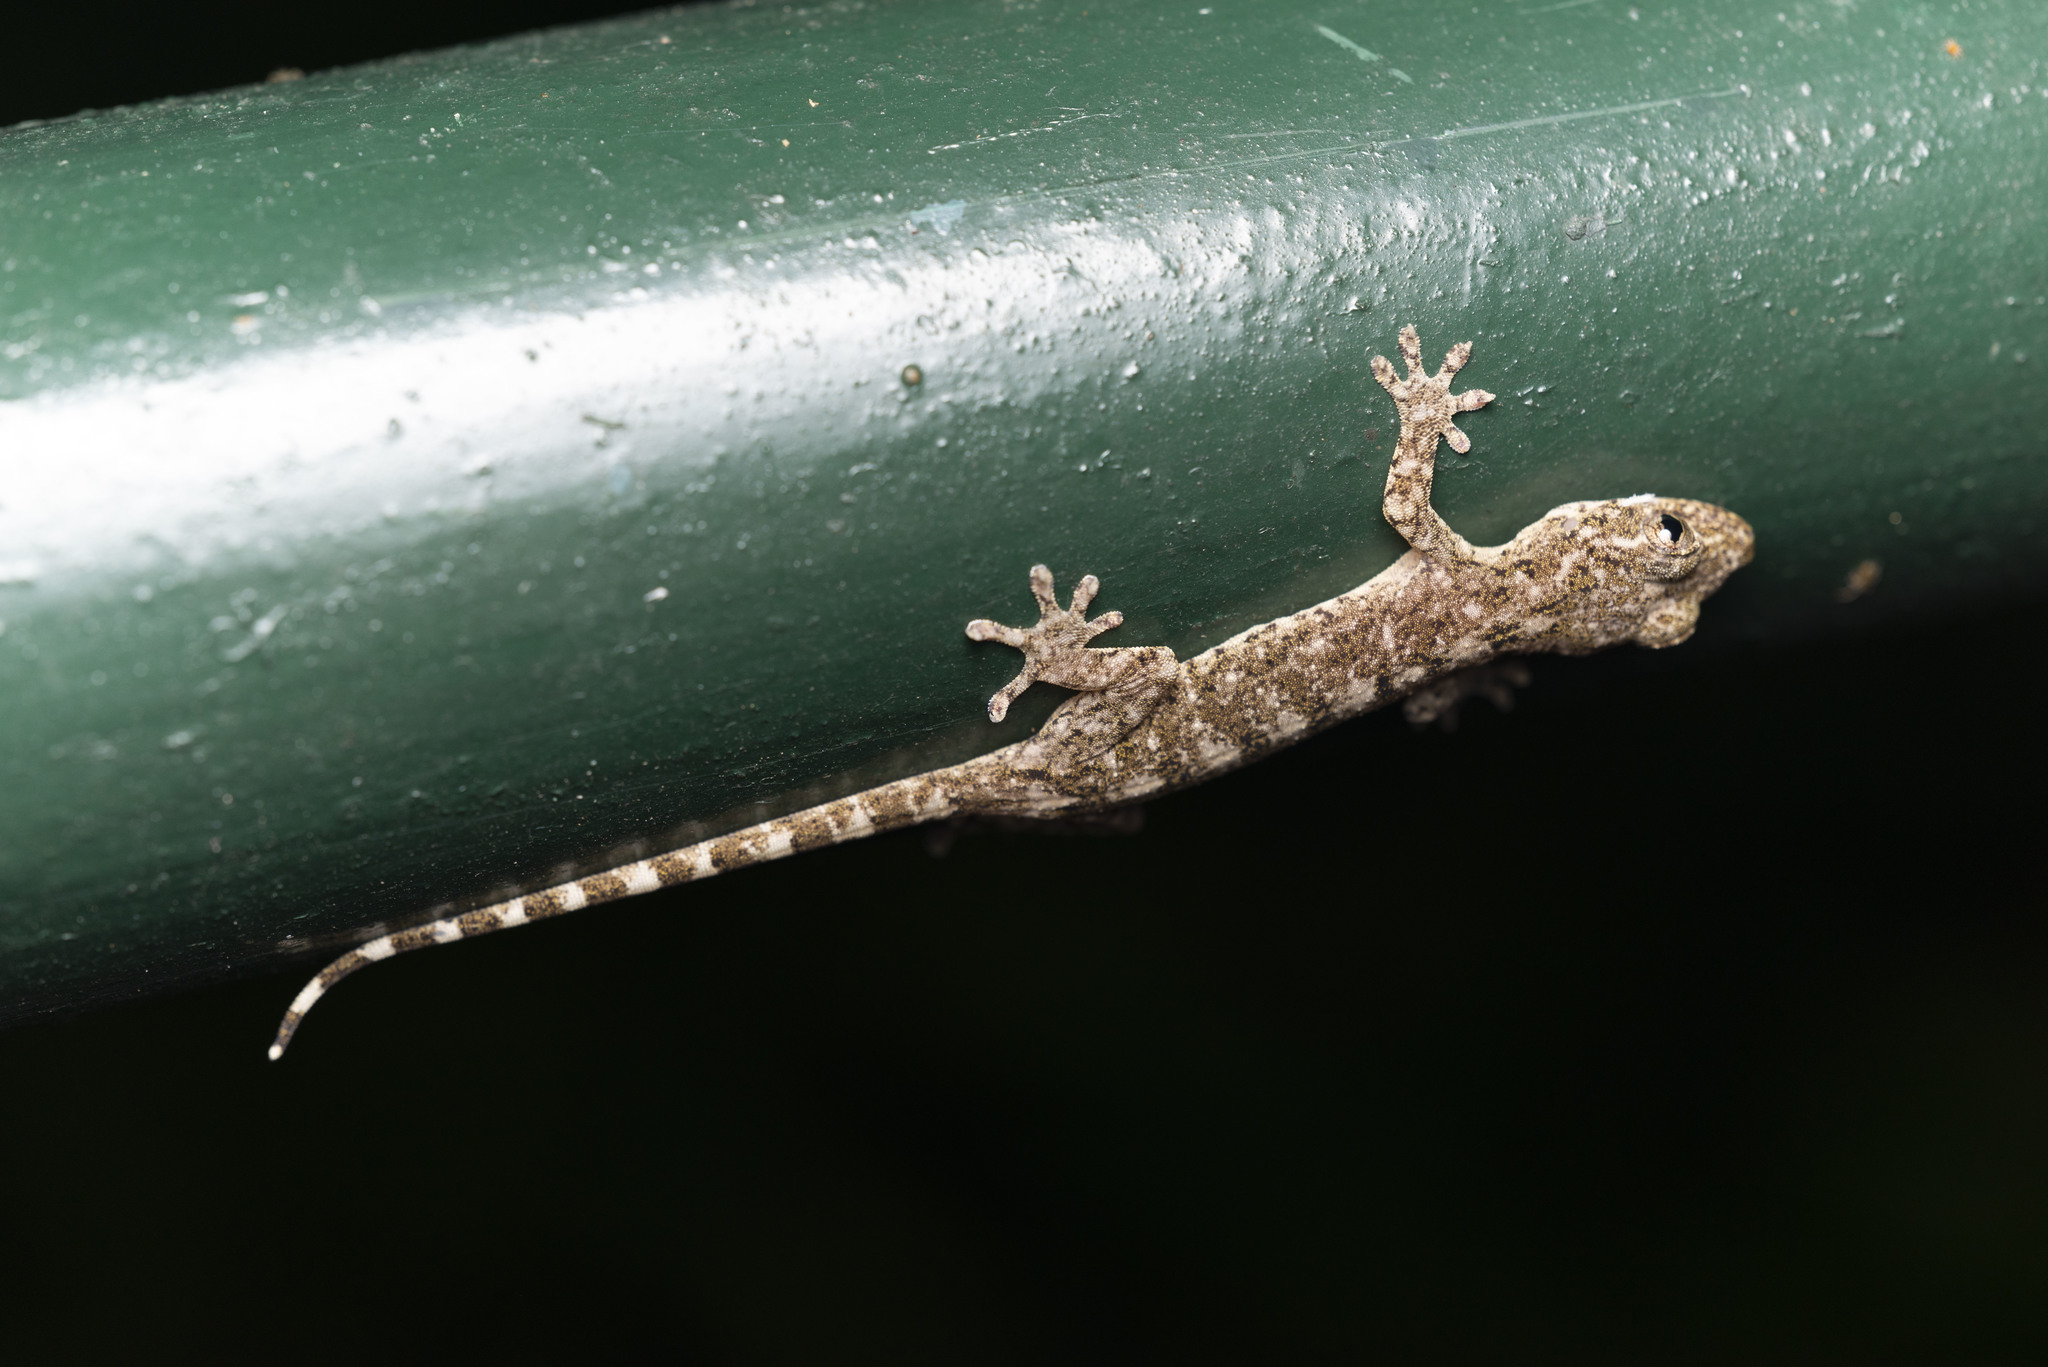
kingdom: Animalia
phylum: Chordata
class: Squamata
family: Gekkonidae
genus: Gekko
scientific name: Gekko chinensis
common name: Gray's chinese gecko
